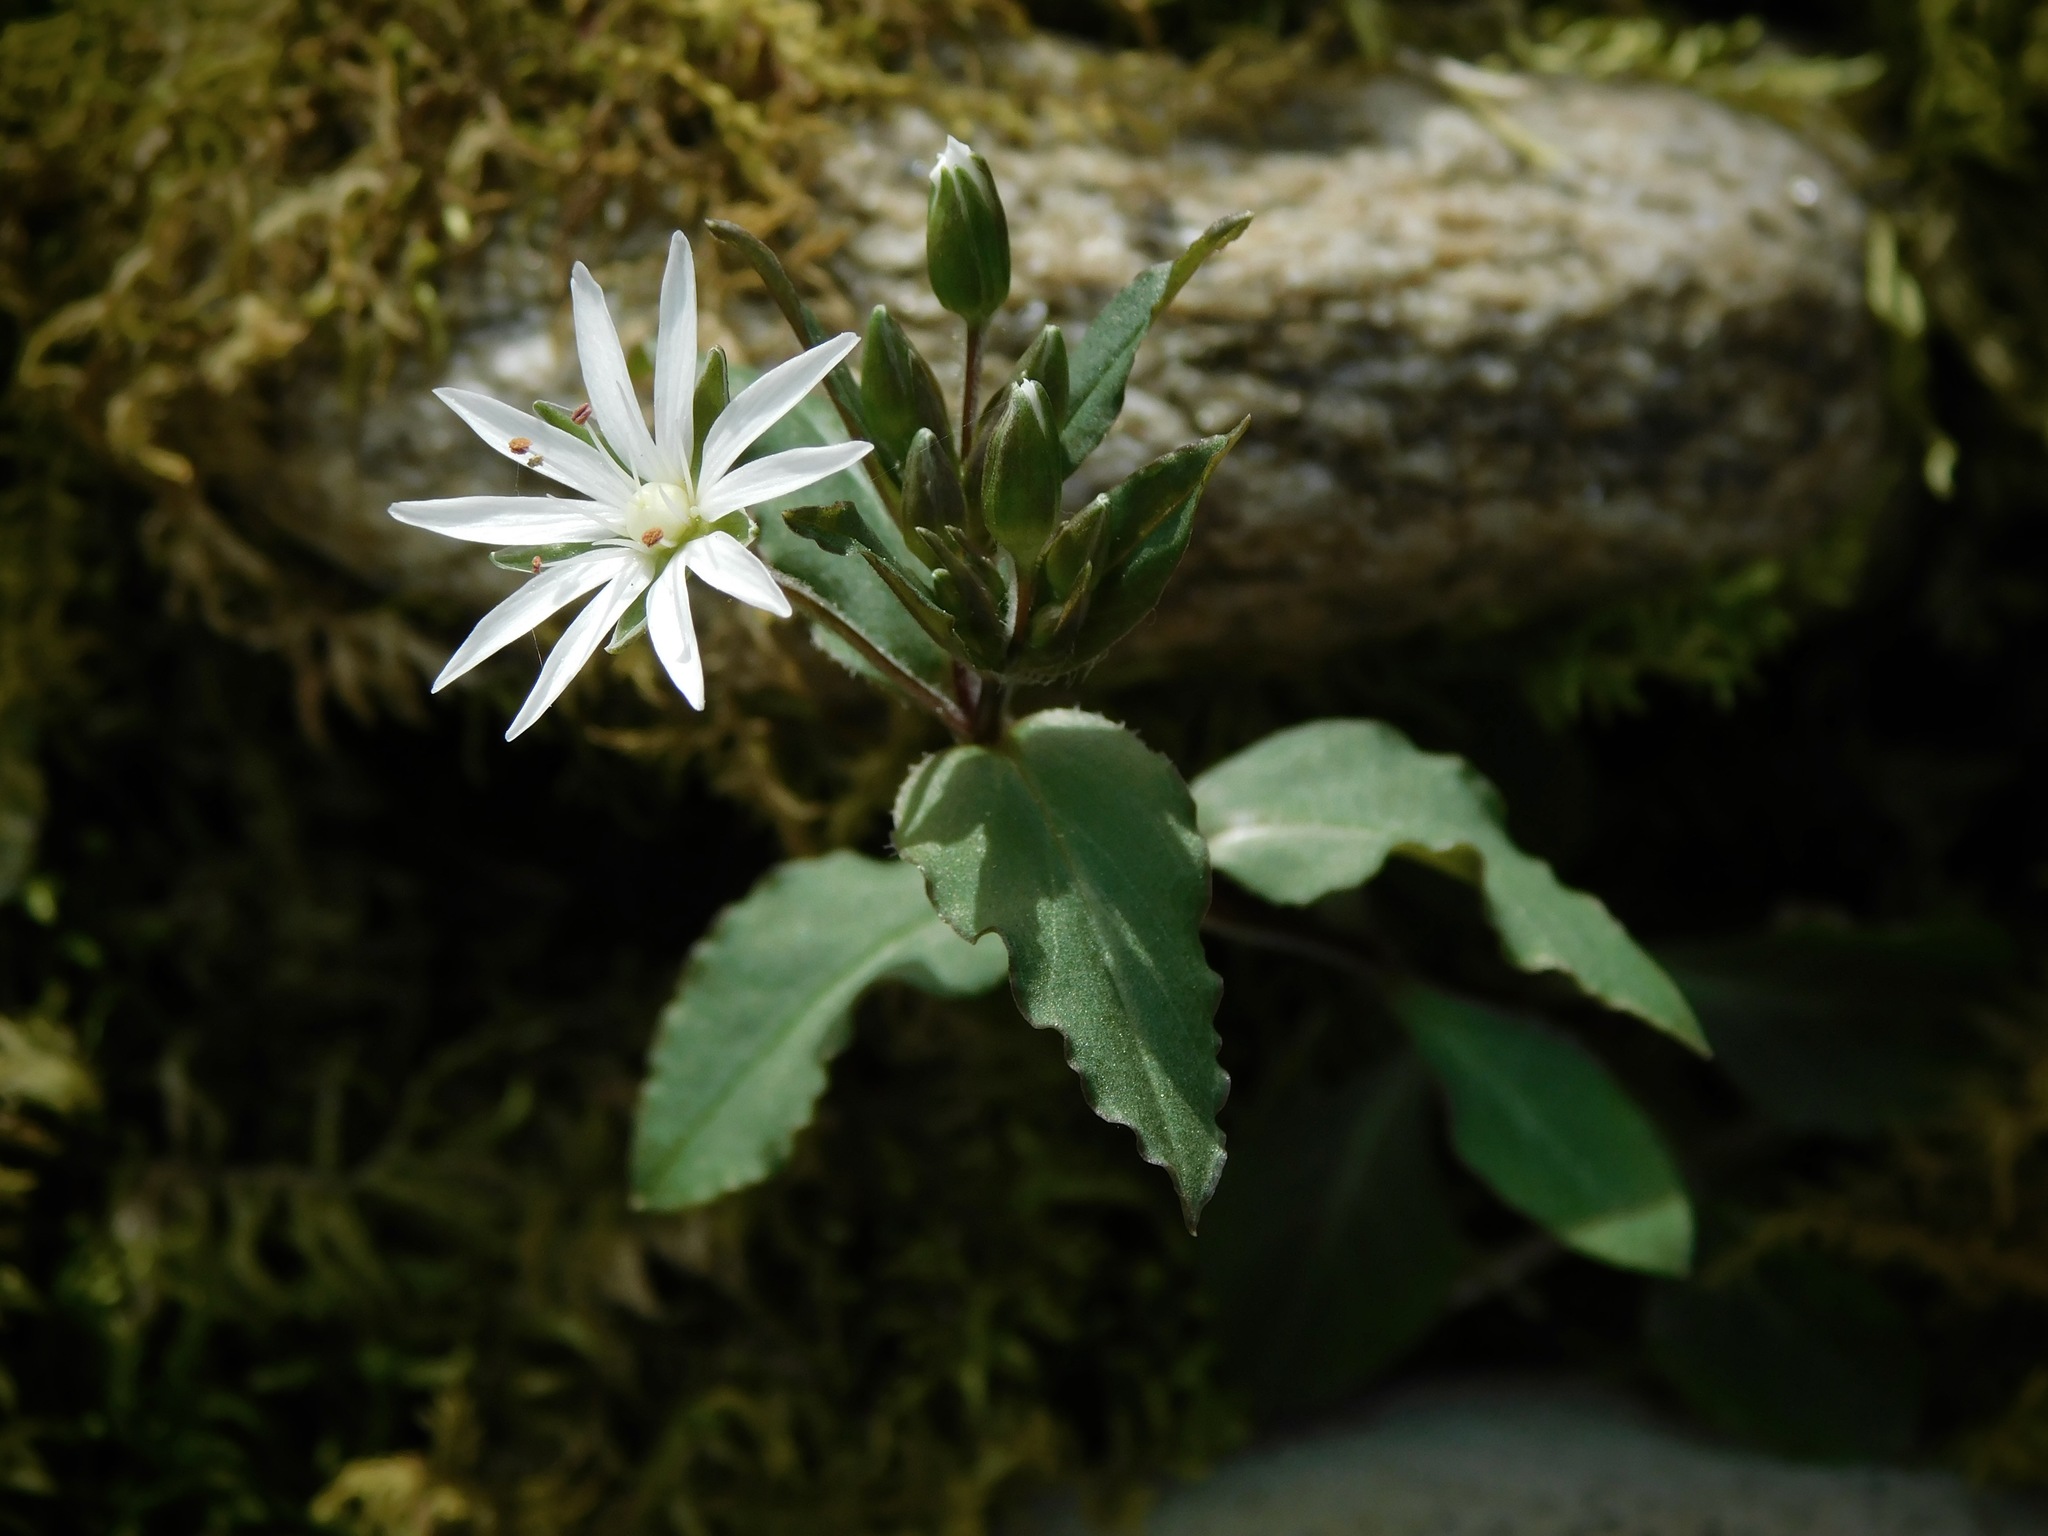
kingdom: Plantae
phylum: Tracheophyta
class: Magnoliopsida
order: Caryophyllales
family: Caryophyllaceae
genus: Stellaria
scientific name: Stellaria pubera
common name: Star chickweed
